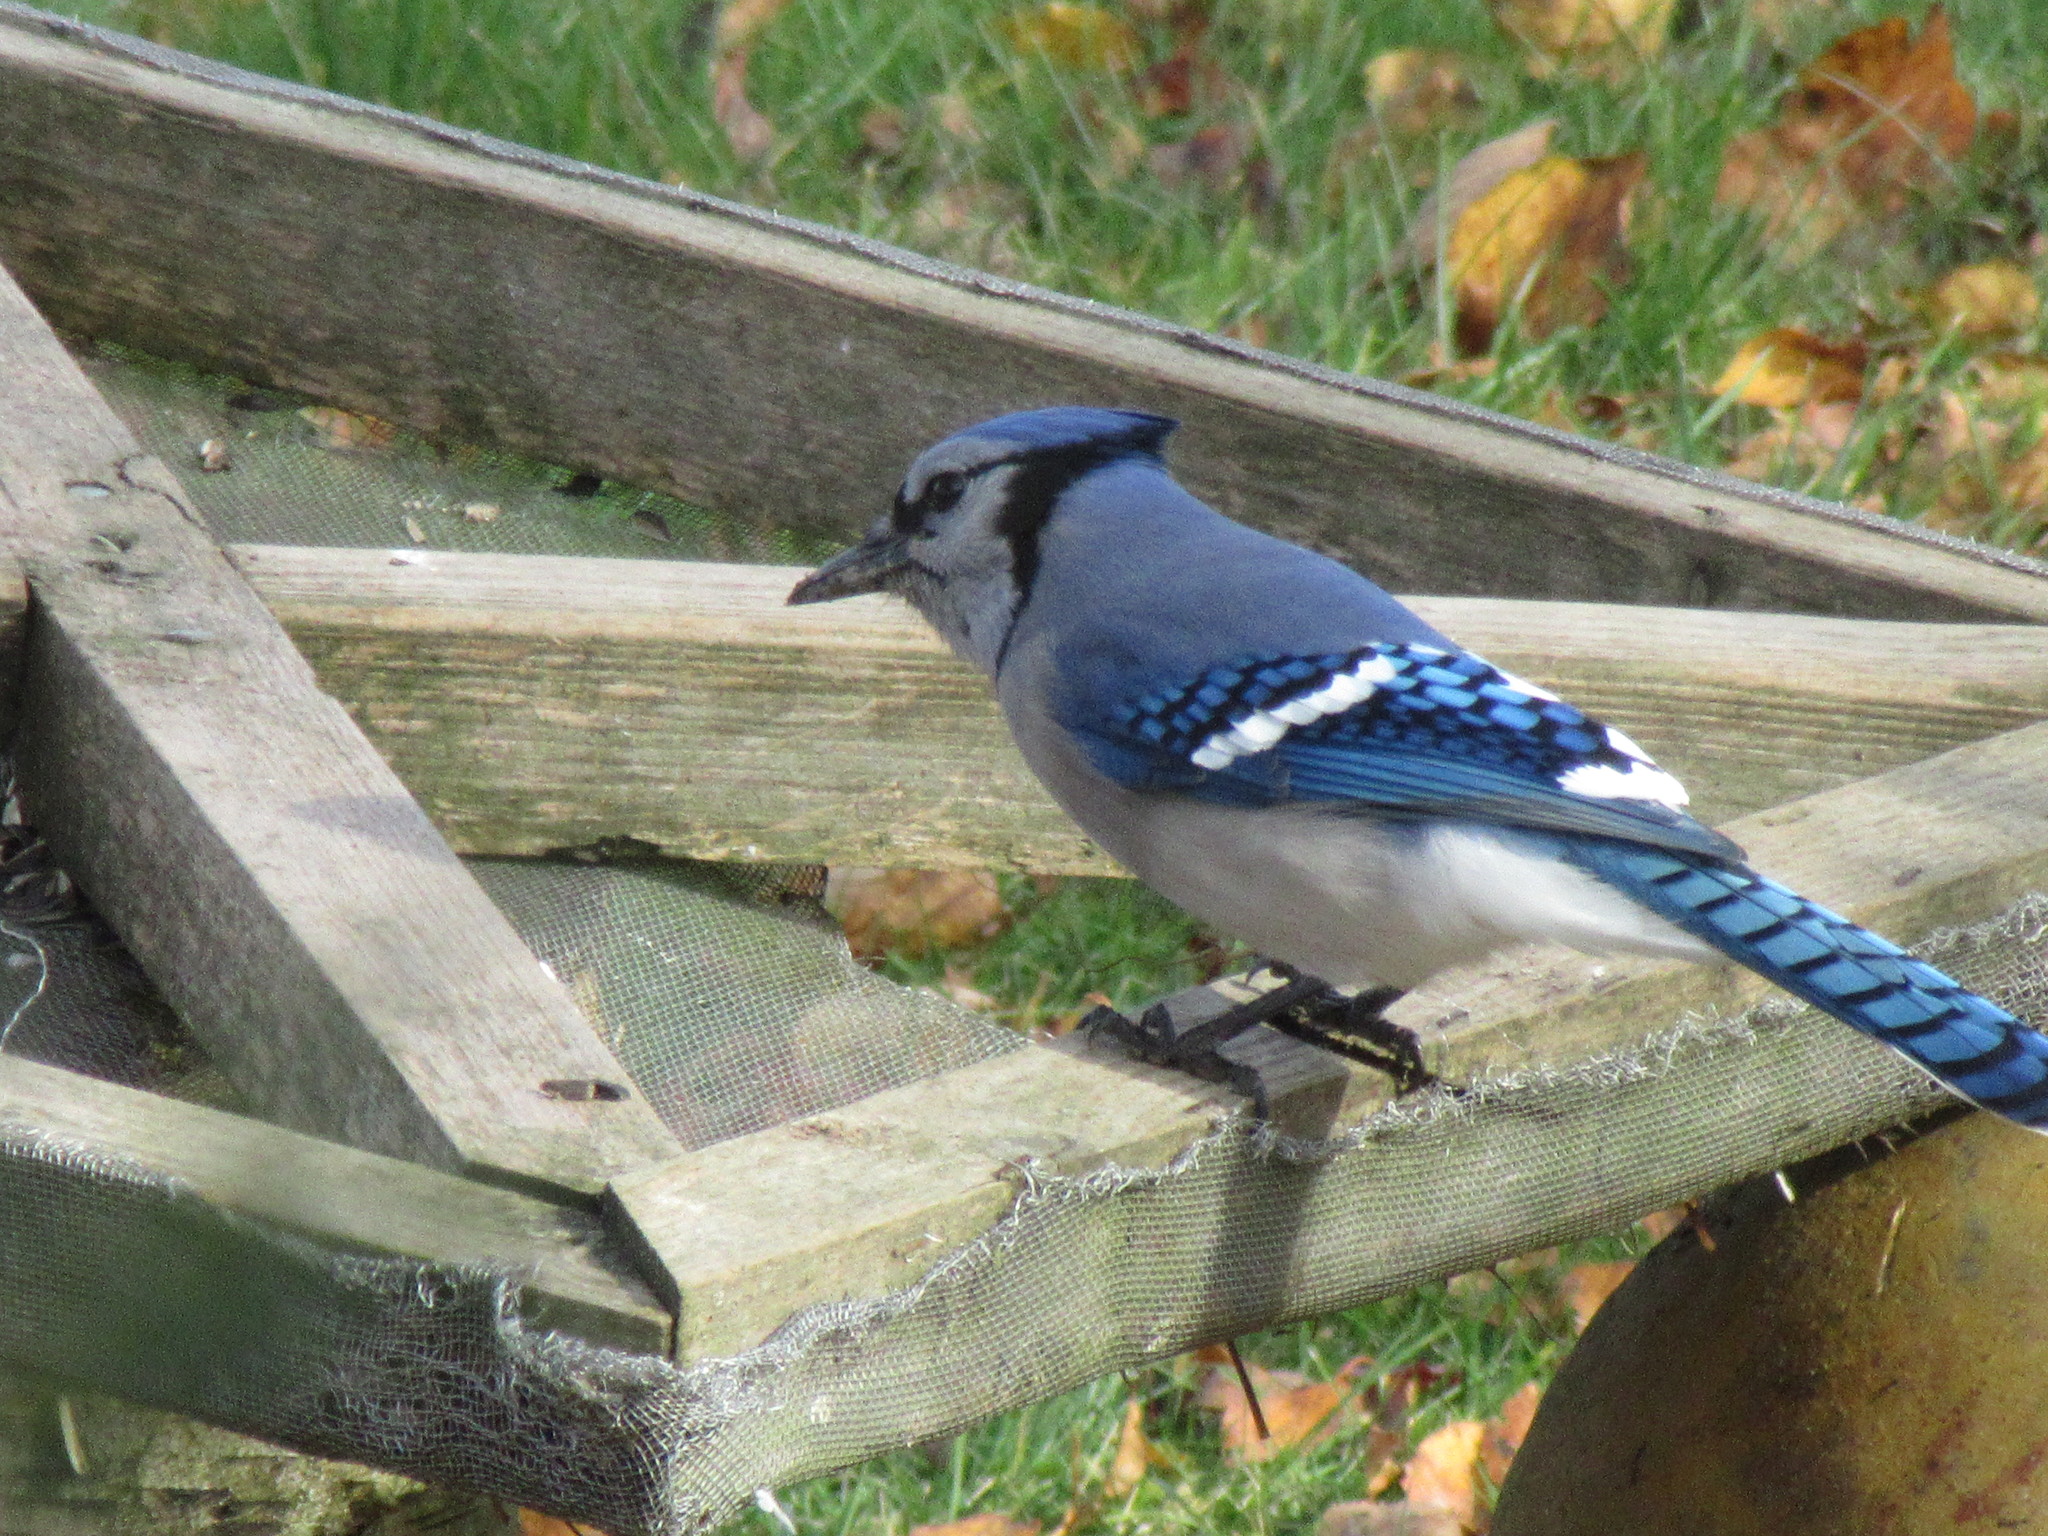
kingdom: Animalia
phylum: Chordata
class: Aves
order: Passeriformes
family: Corvidae
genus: Cyanocitta
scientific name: Cyanocitta cristata
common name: Blue jay
